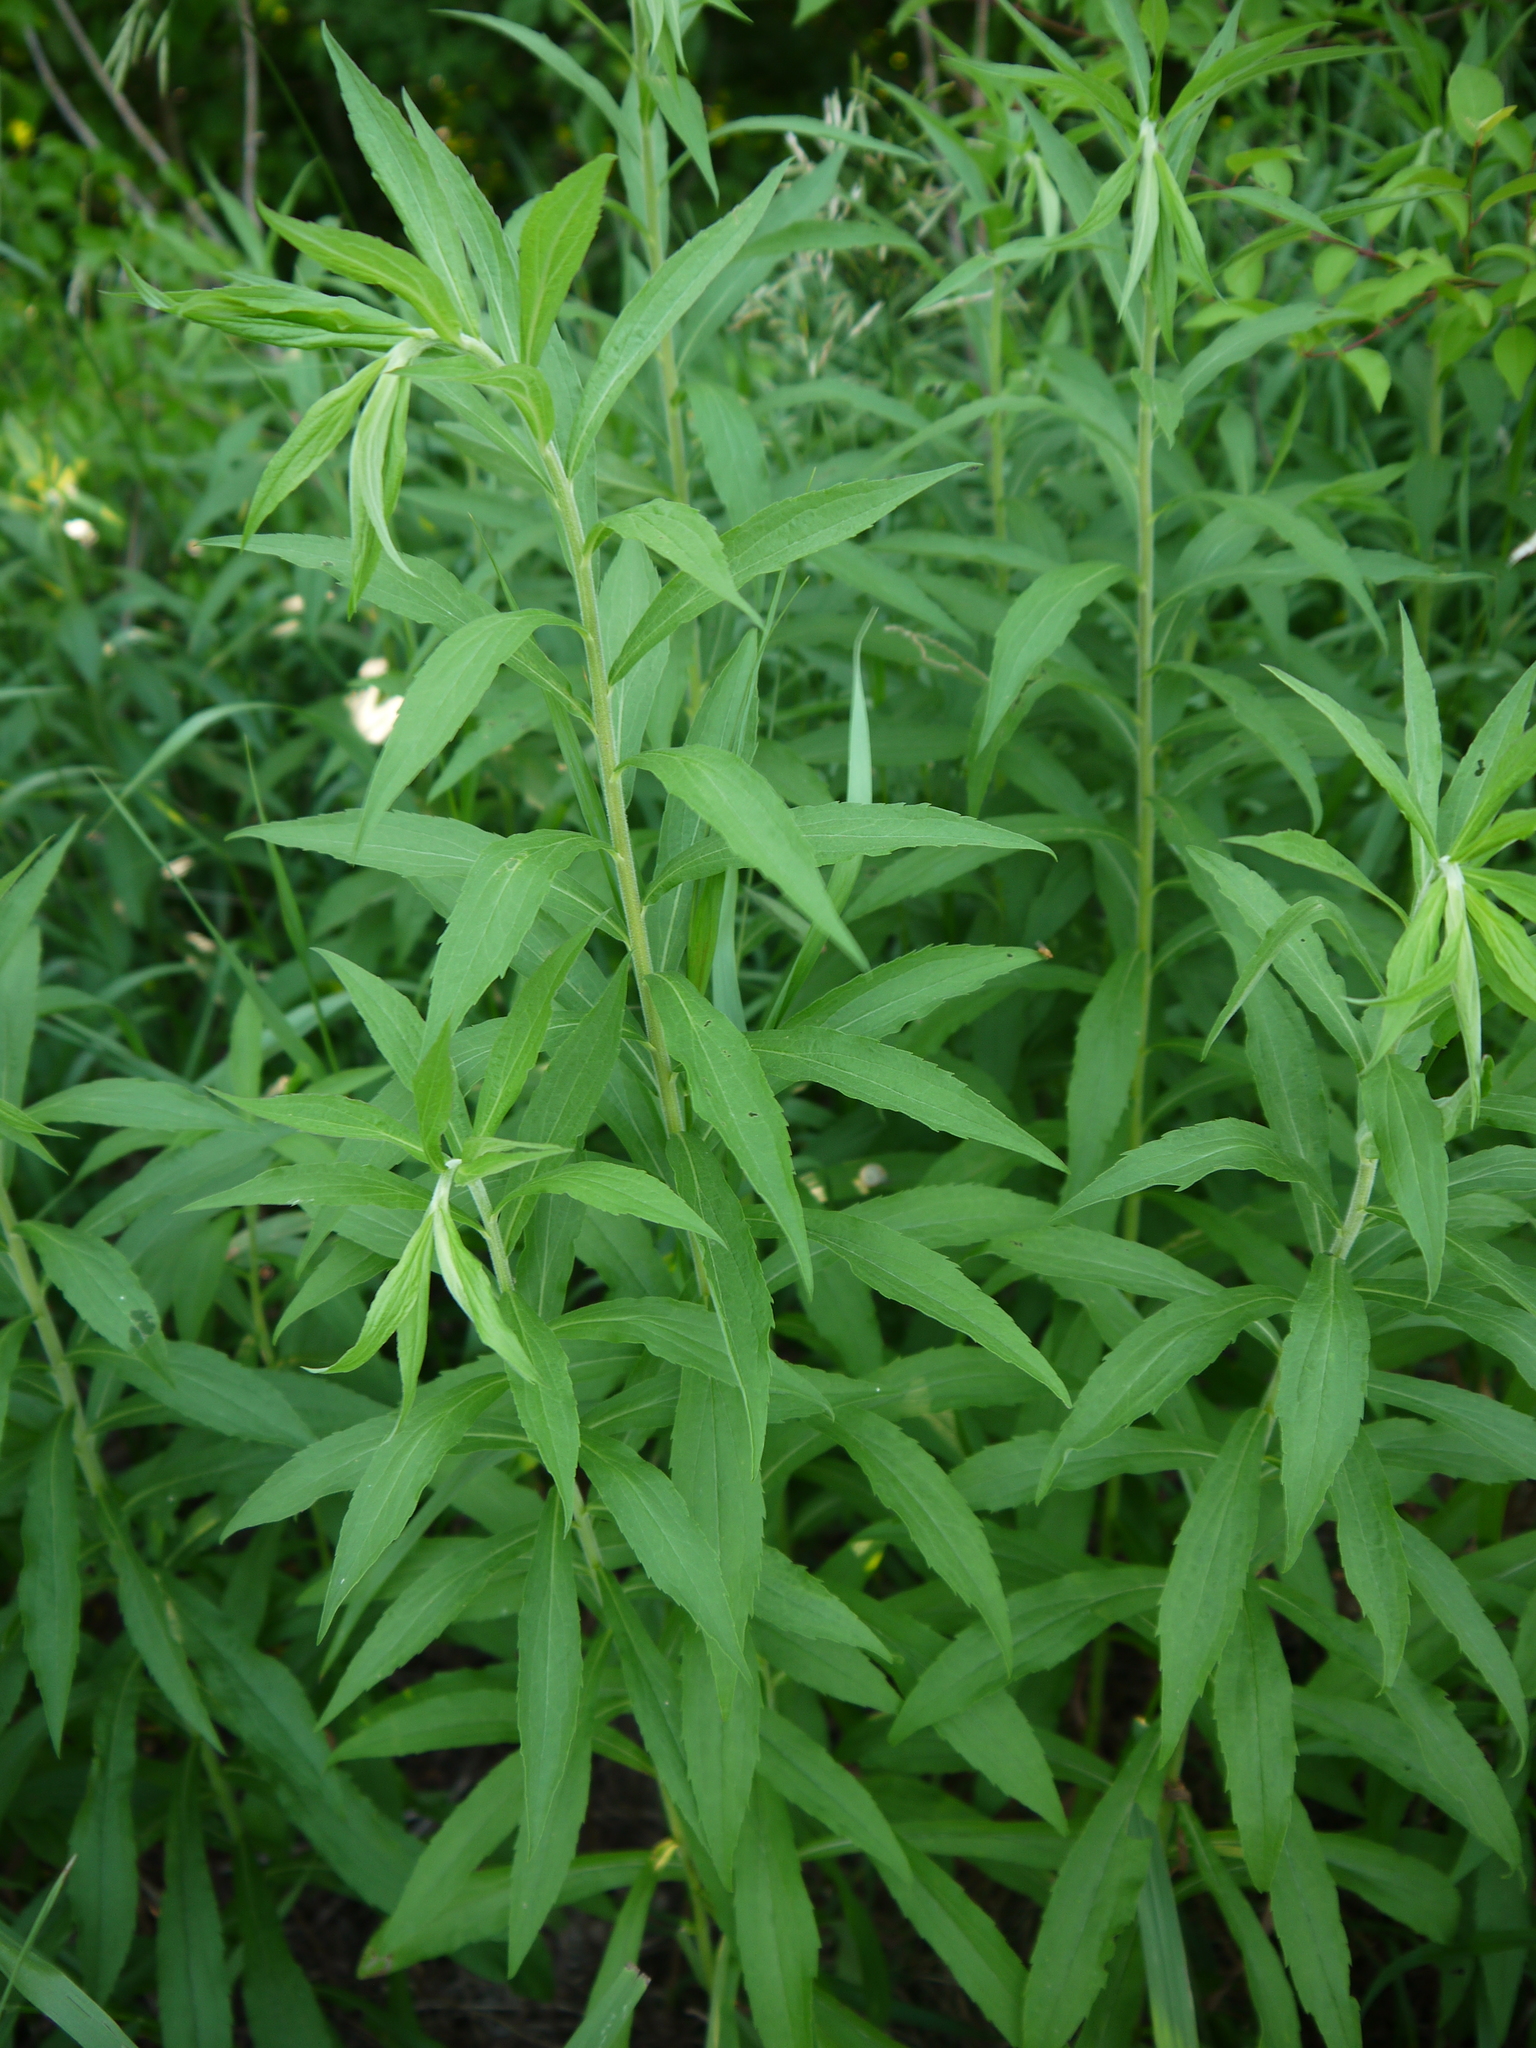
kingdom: Plantae
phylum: Tracheophyta
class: Magnoliopsida
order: Asterales
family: Asteraceae
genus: Solidago
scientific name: Solidago canadensis
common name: Canada goldenrod
